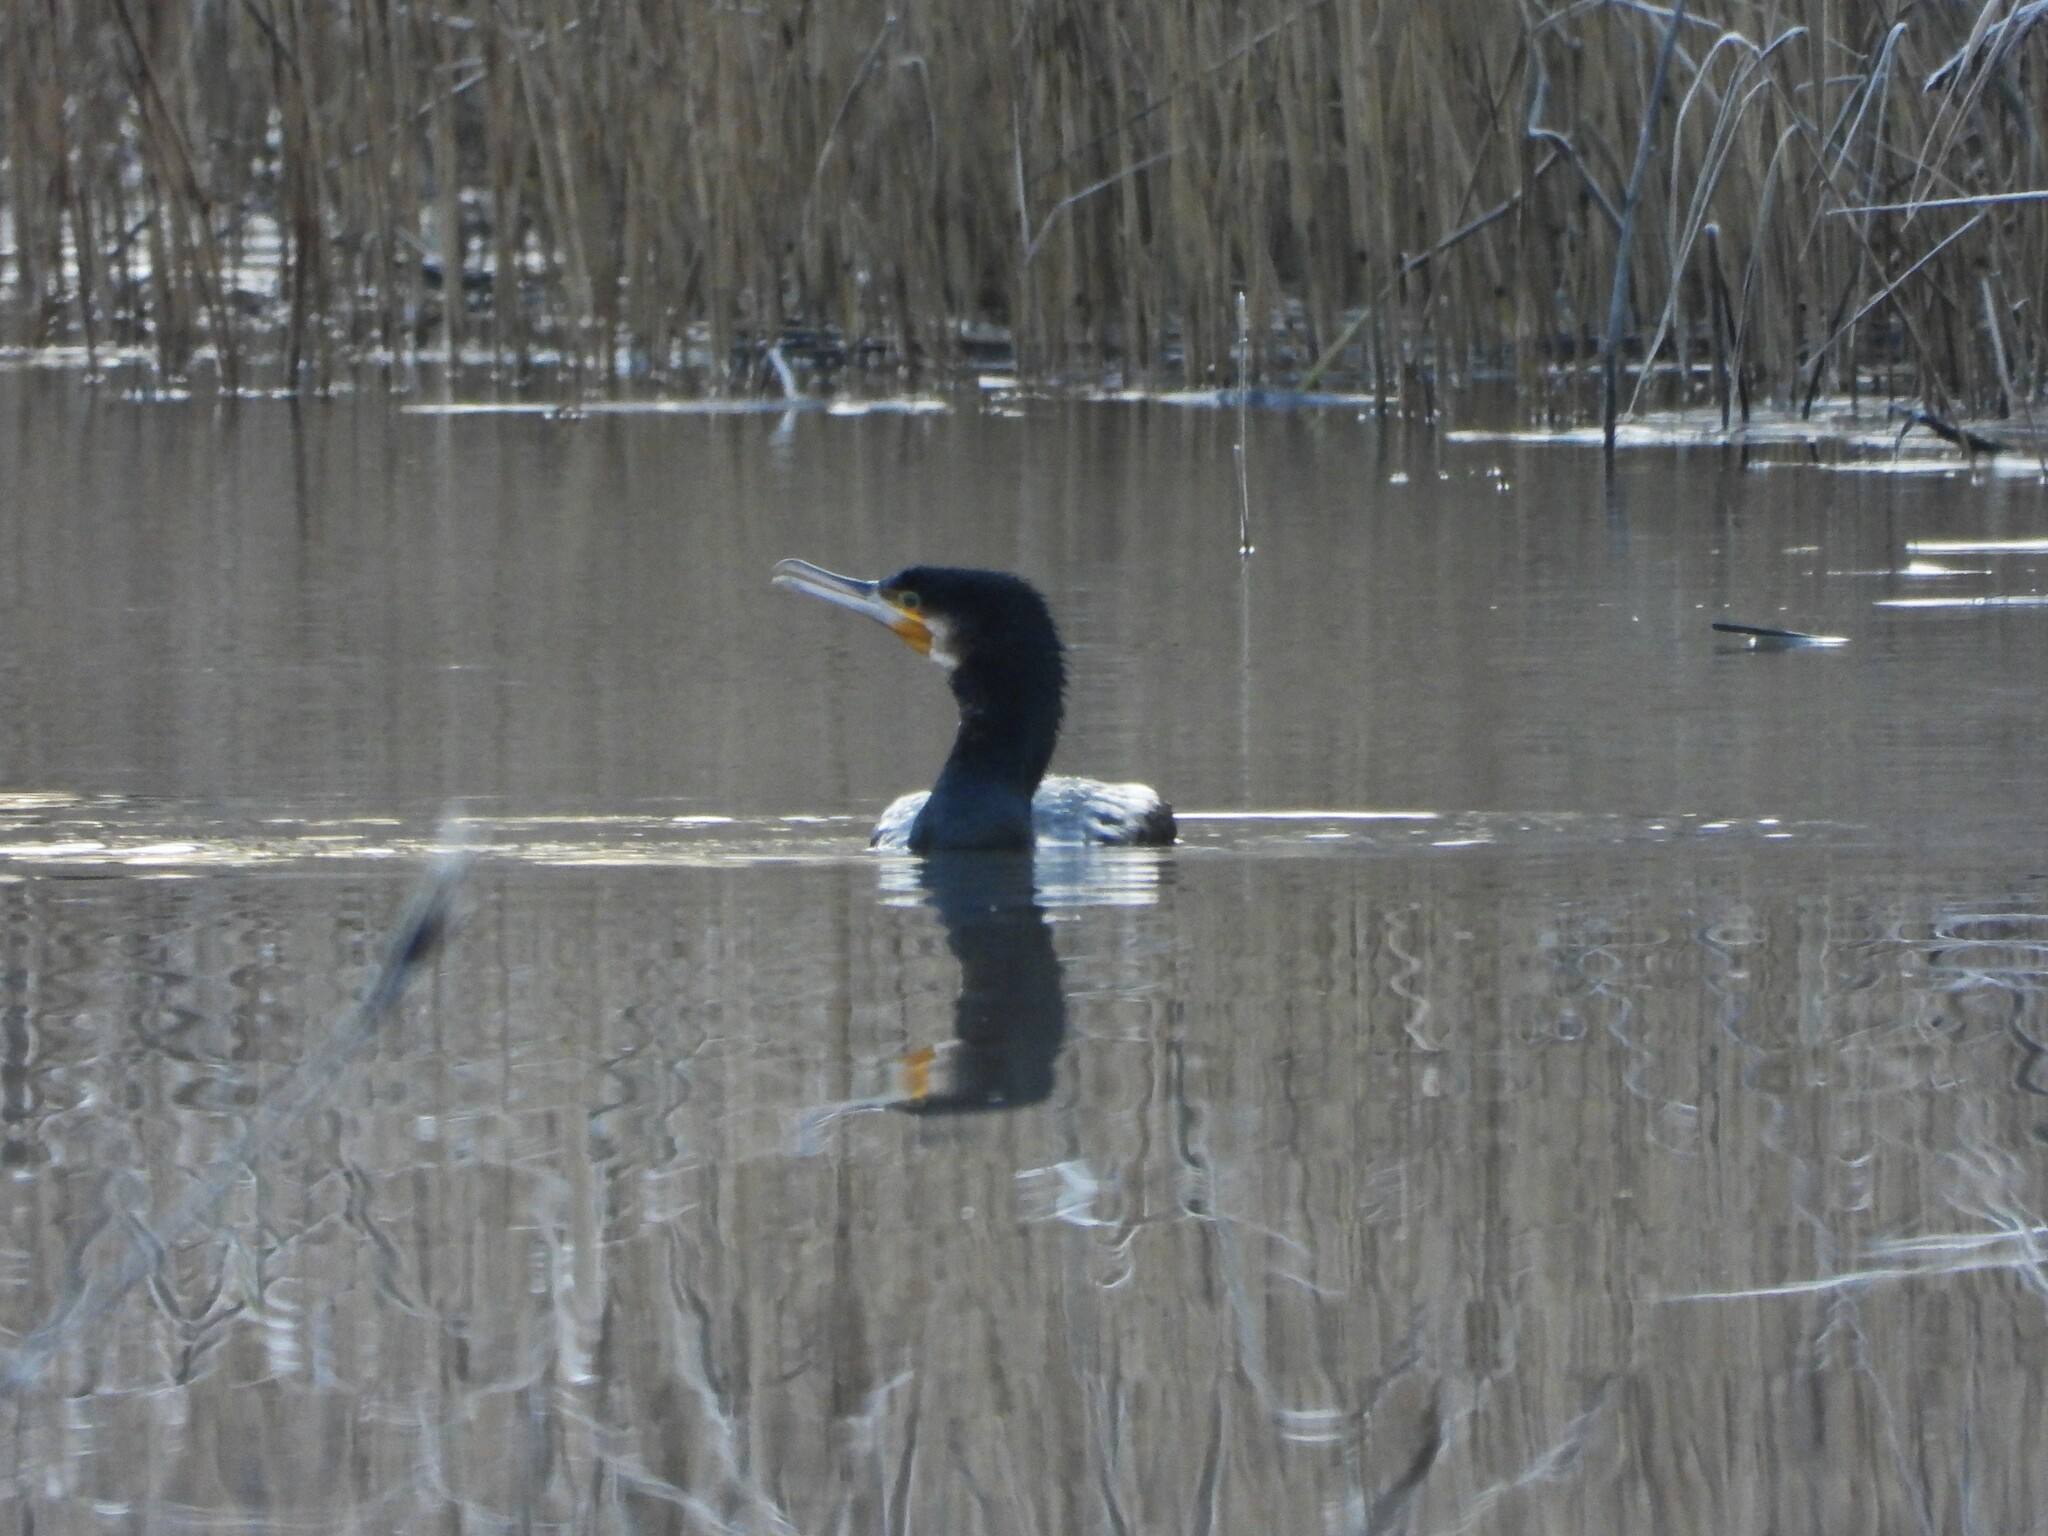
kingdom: Animalia
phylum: Chordata
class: Aves
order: Suliformes
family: Phalacrocoracidae
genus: Phalacrocorax
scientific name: Phalacrocorax carbo
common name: Great cormorant
